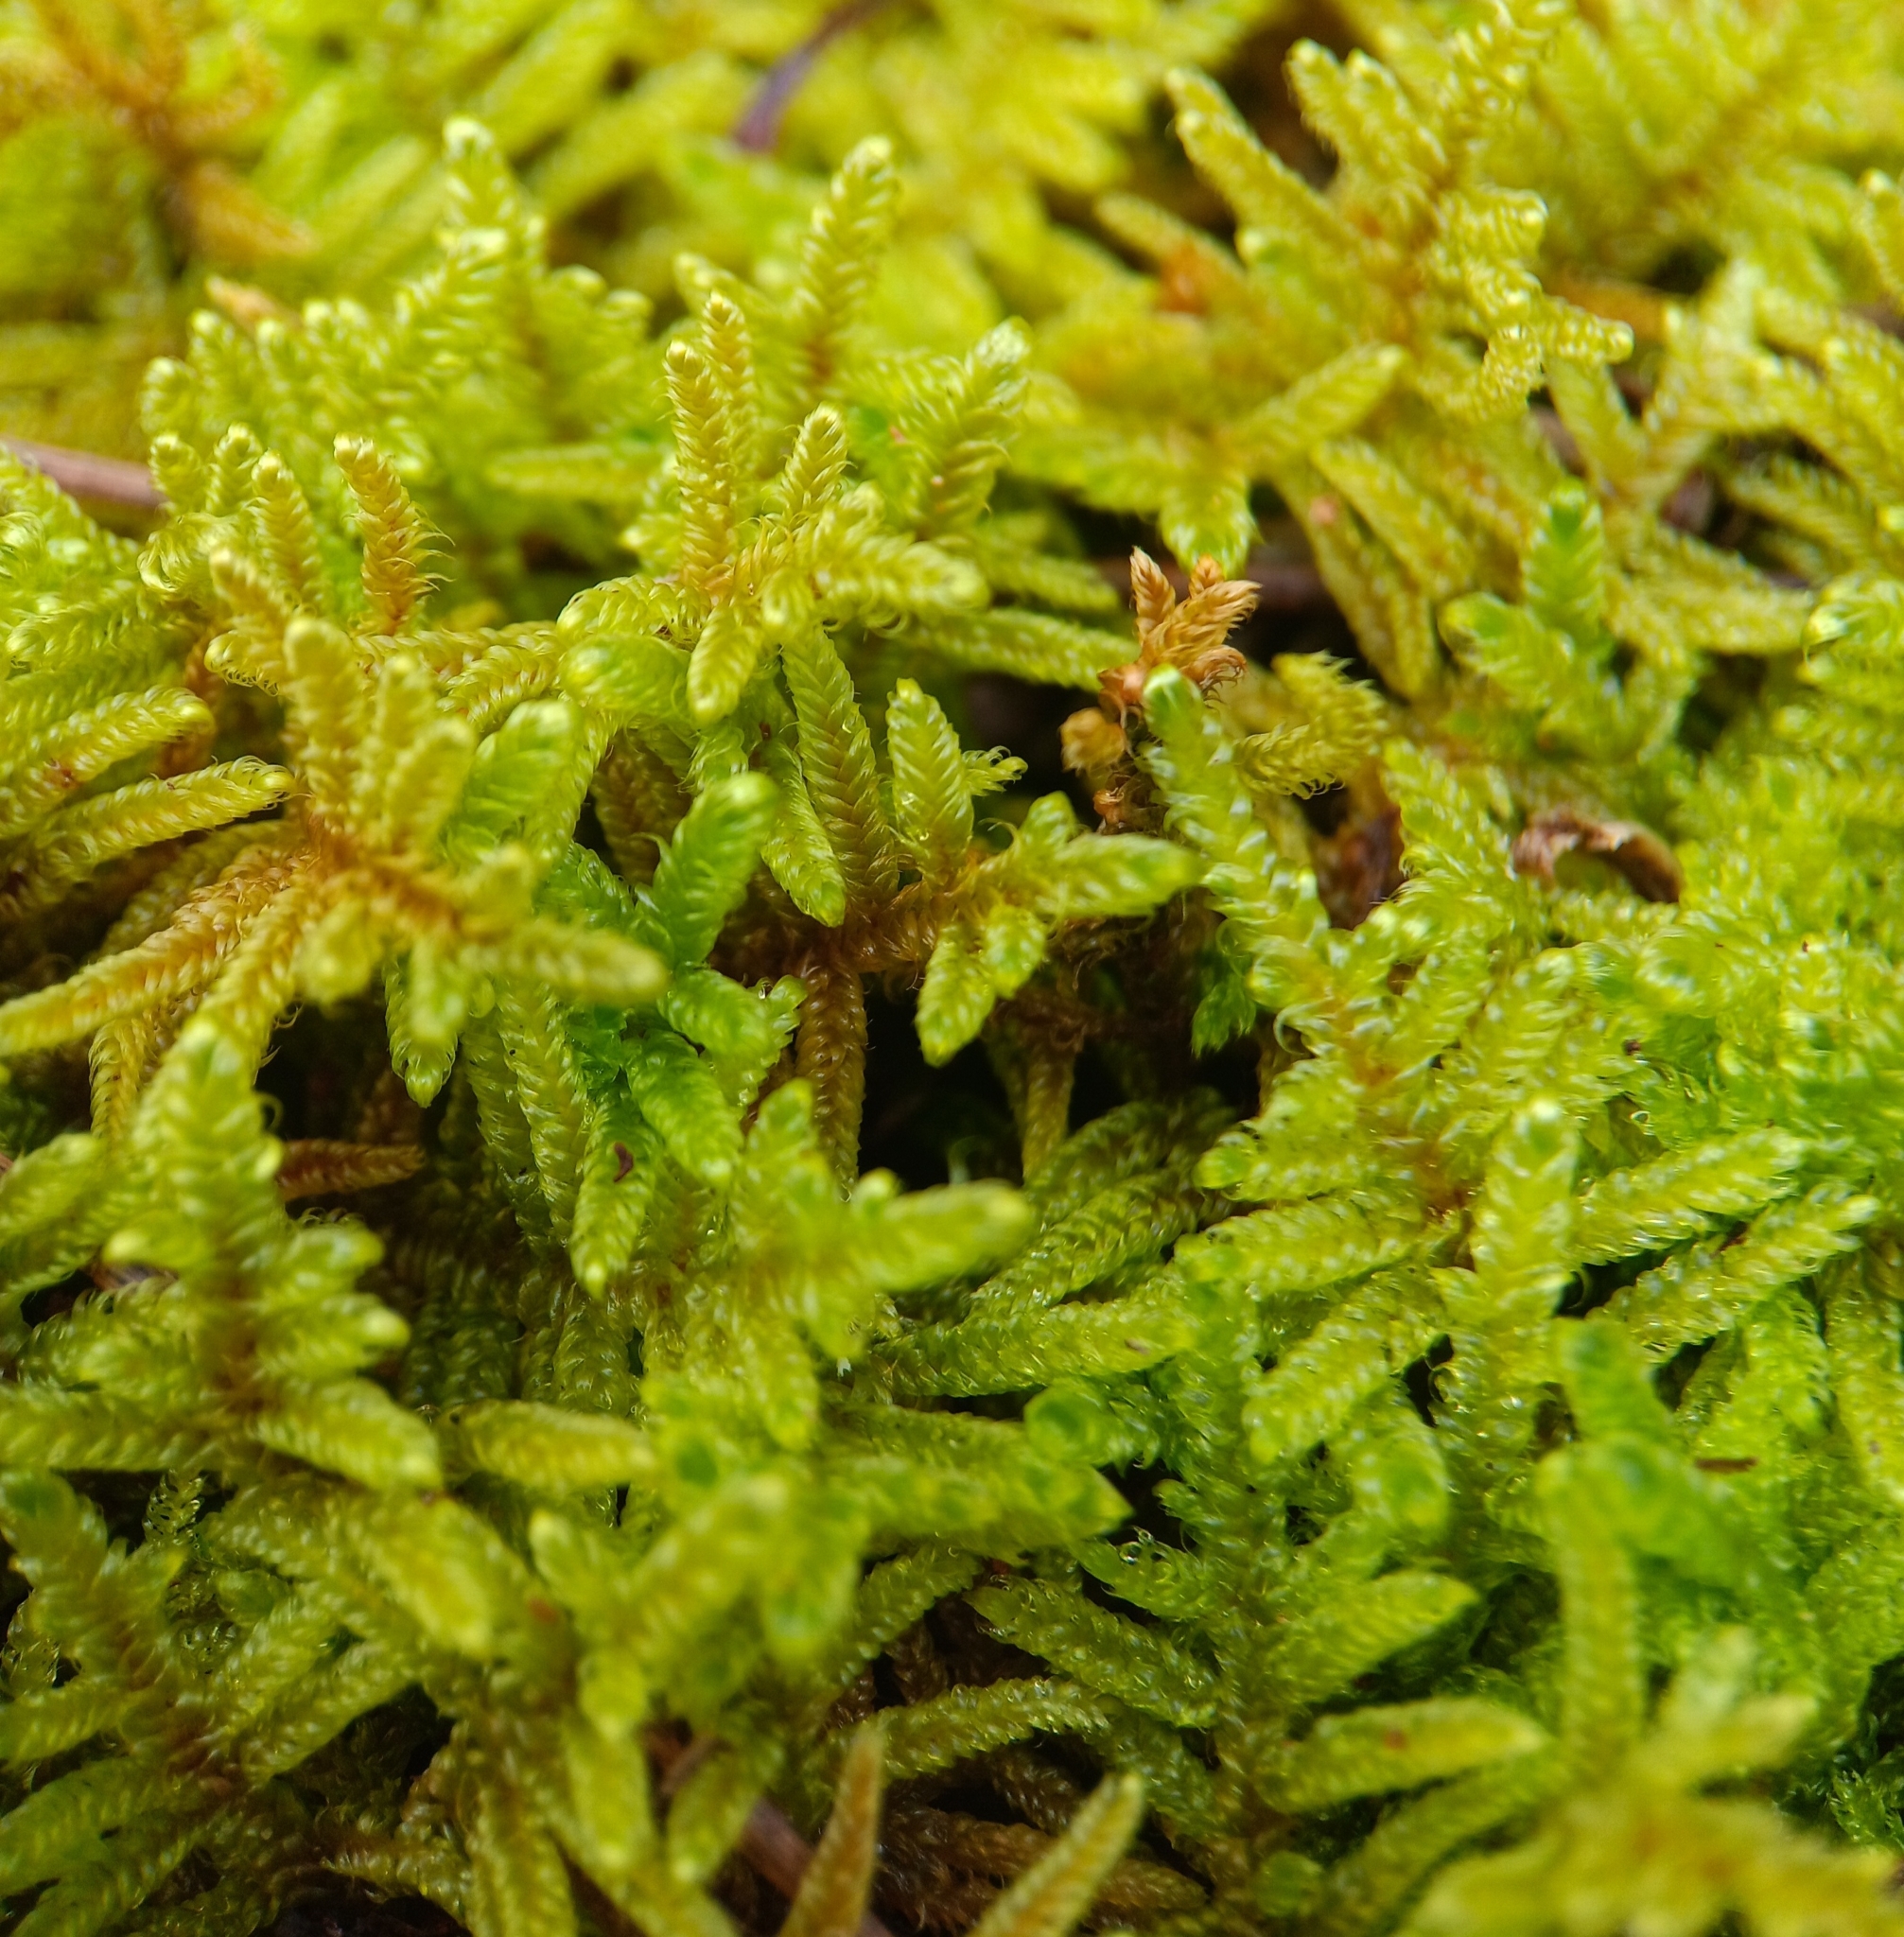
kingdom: Plantae
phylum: Bryophyta
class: Bryopsida
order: Hypnales
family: Hypnaceae
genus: Hypnum
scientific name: Hypnum plumaeforme
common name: Cypress-leaved plaitmoss
